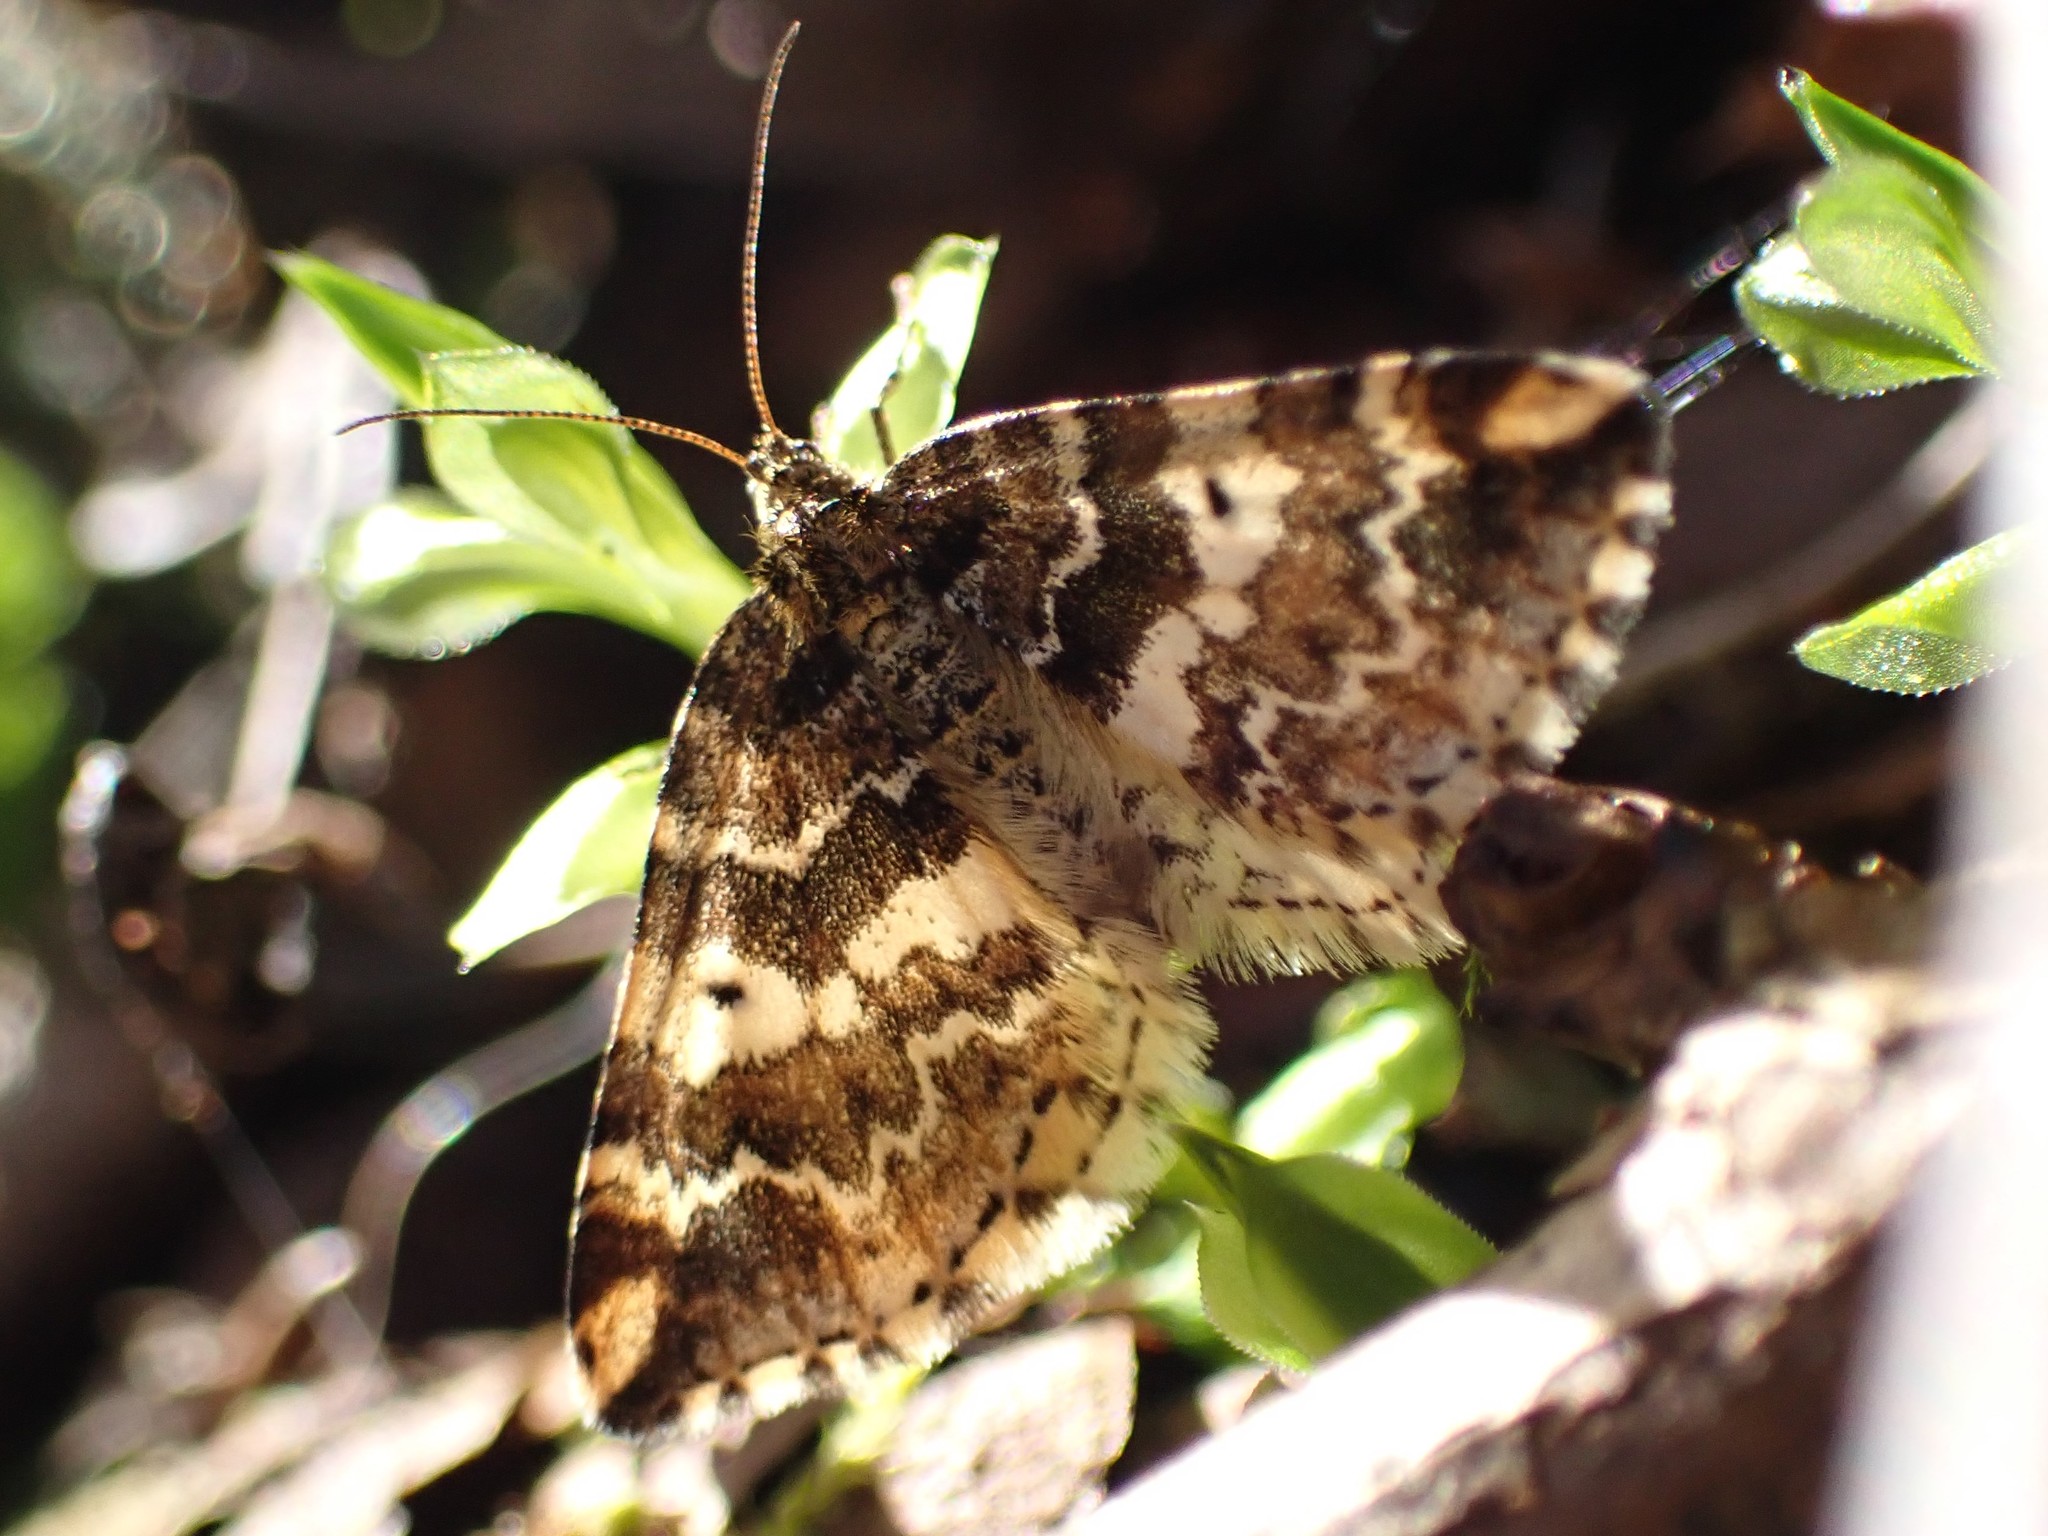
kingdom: Animalia
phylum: Arthropoda
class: Insecta
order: Lepidoptera
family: Geometridae
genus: Enchoria
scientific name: Enchoria lacteata
